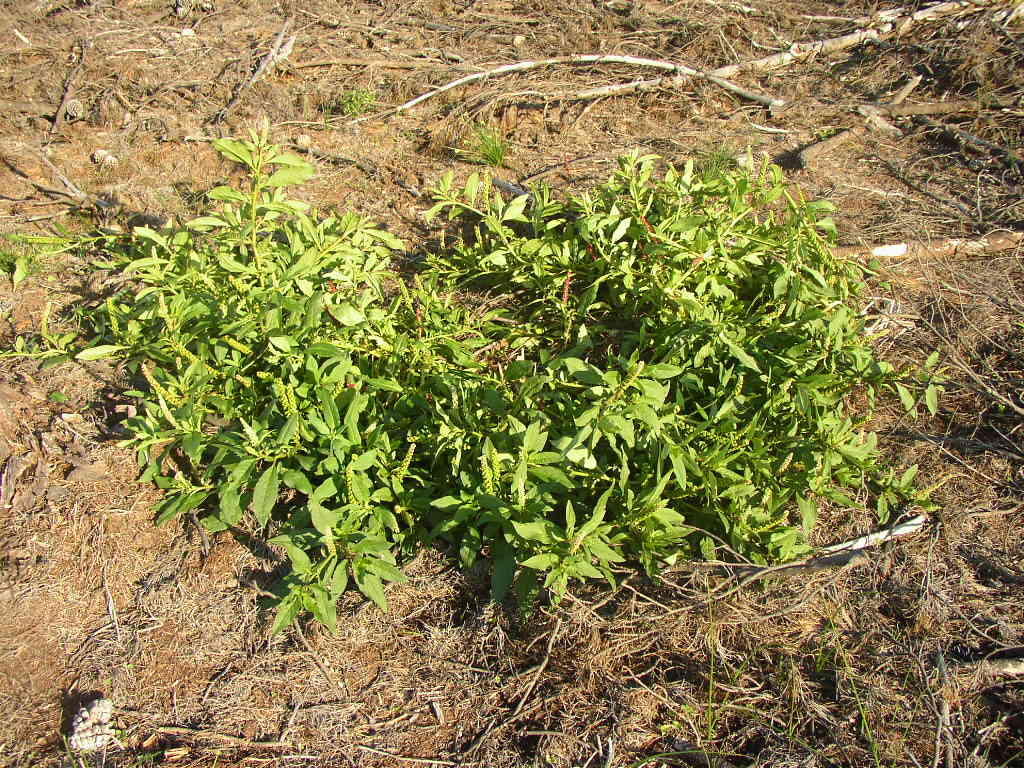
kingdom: Plantae
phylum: Tracheophyta
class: Magnoliopsida
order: Caryophyllales
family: Phytolaccaceae
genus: Phytolacca
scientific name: Phytolacca icosandra
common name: Button pokeweed
